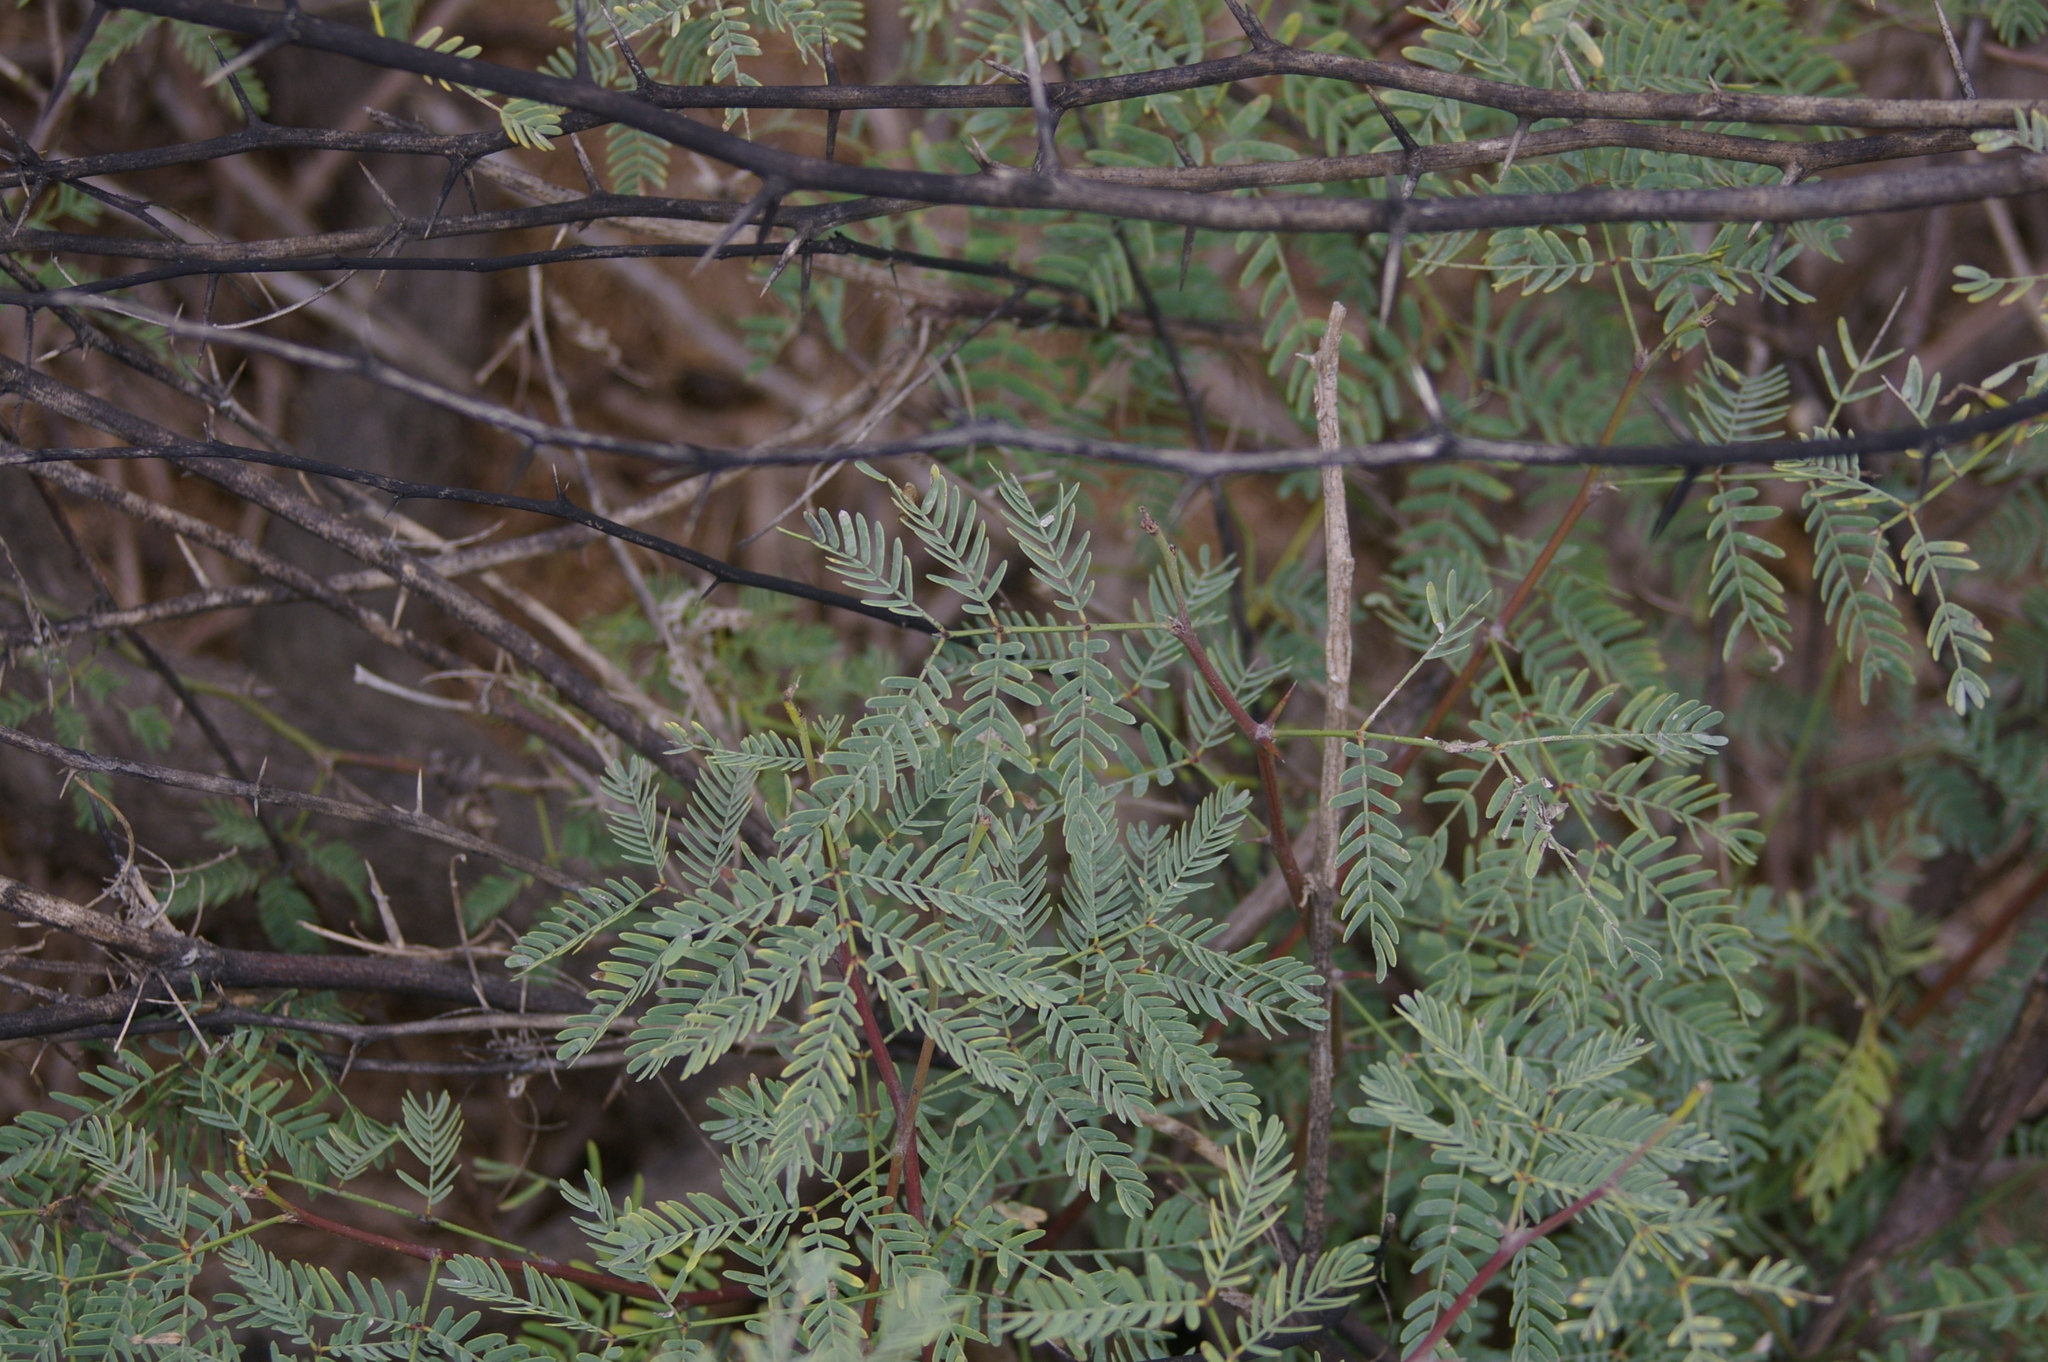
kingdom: Plantae
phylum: Tracheophyta
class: Magnoliopsida
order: Fabales
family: Fabaceae
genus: Prosopis
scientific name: Prosopis juliflora
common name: Mesquite
